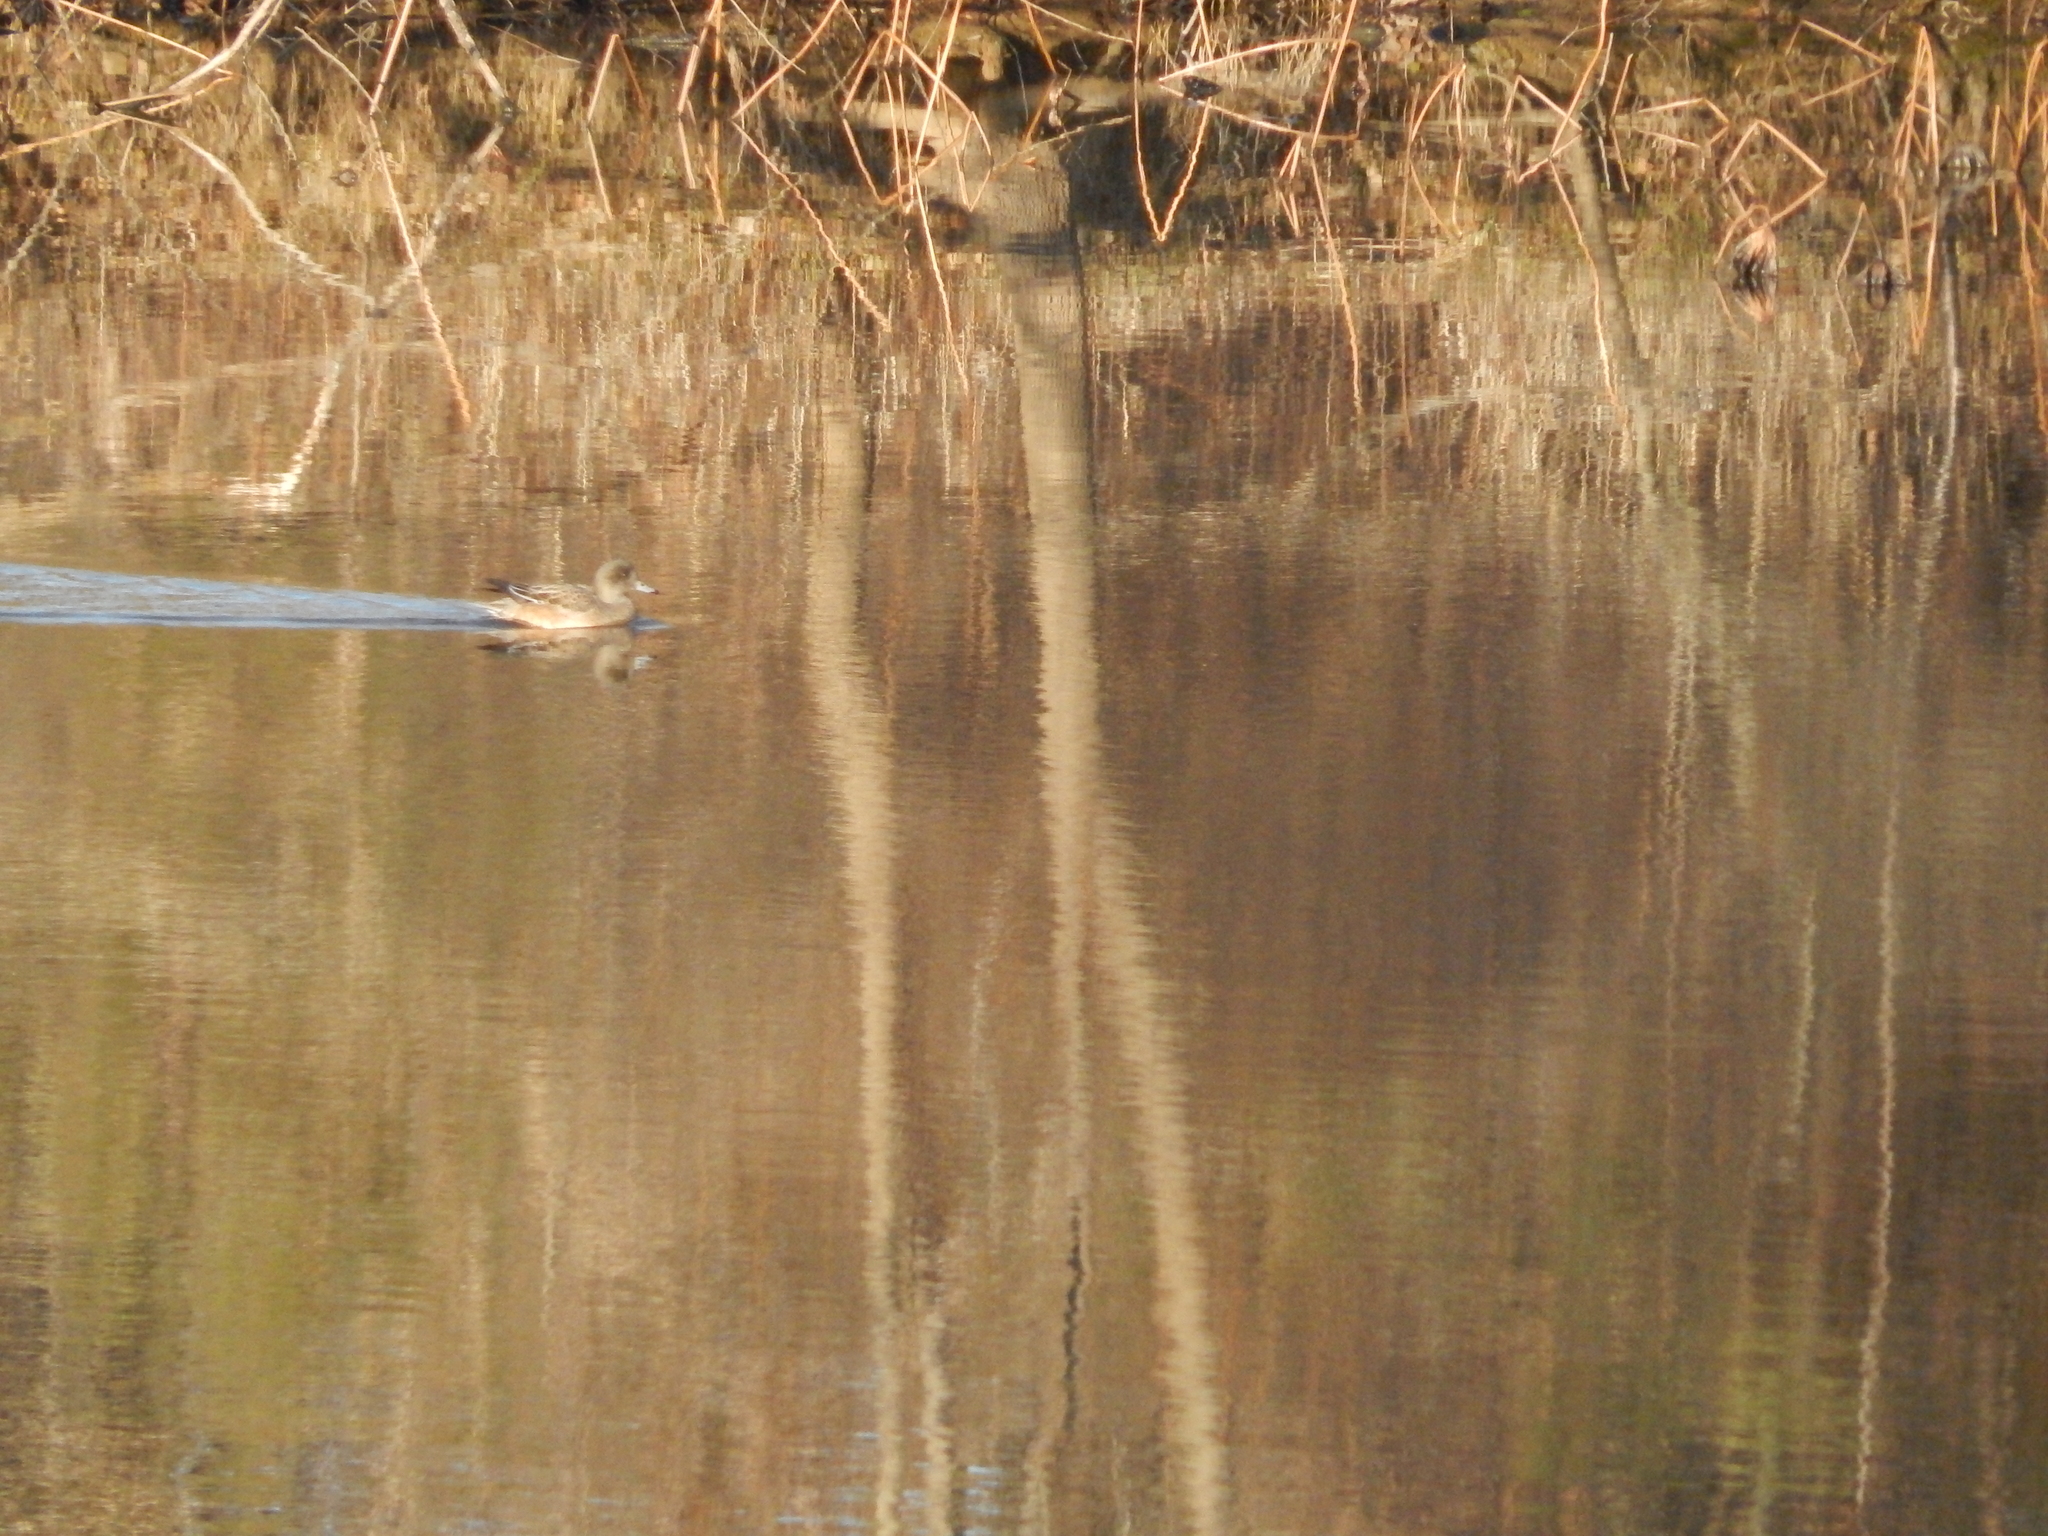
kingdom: Animalia
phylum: Chordata
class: Aves
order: Anseriformes
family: Anatidae
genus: Mareca
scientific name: Mareca americana
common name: American wigeon
